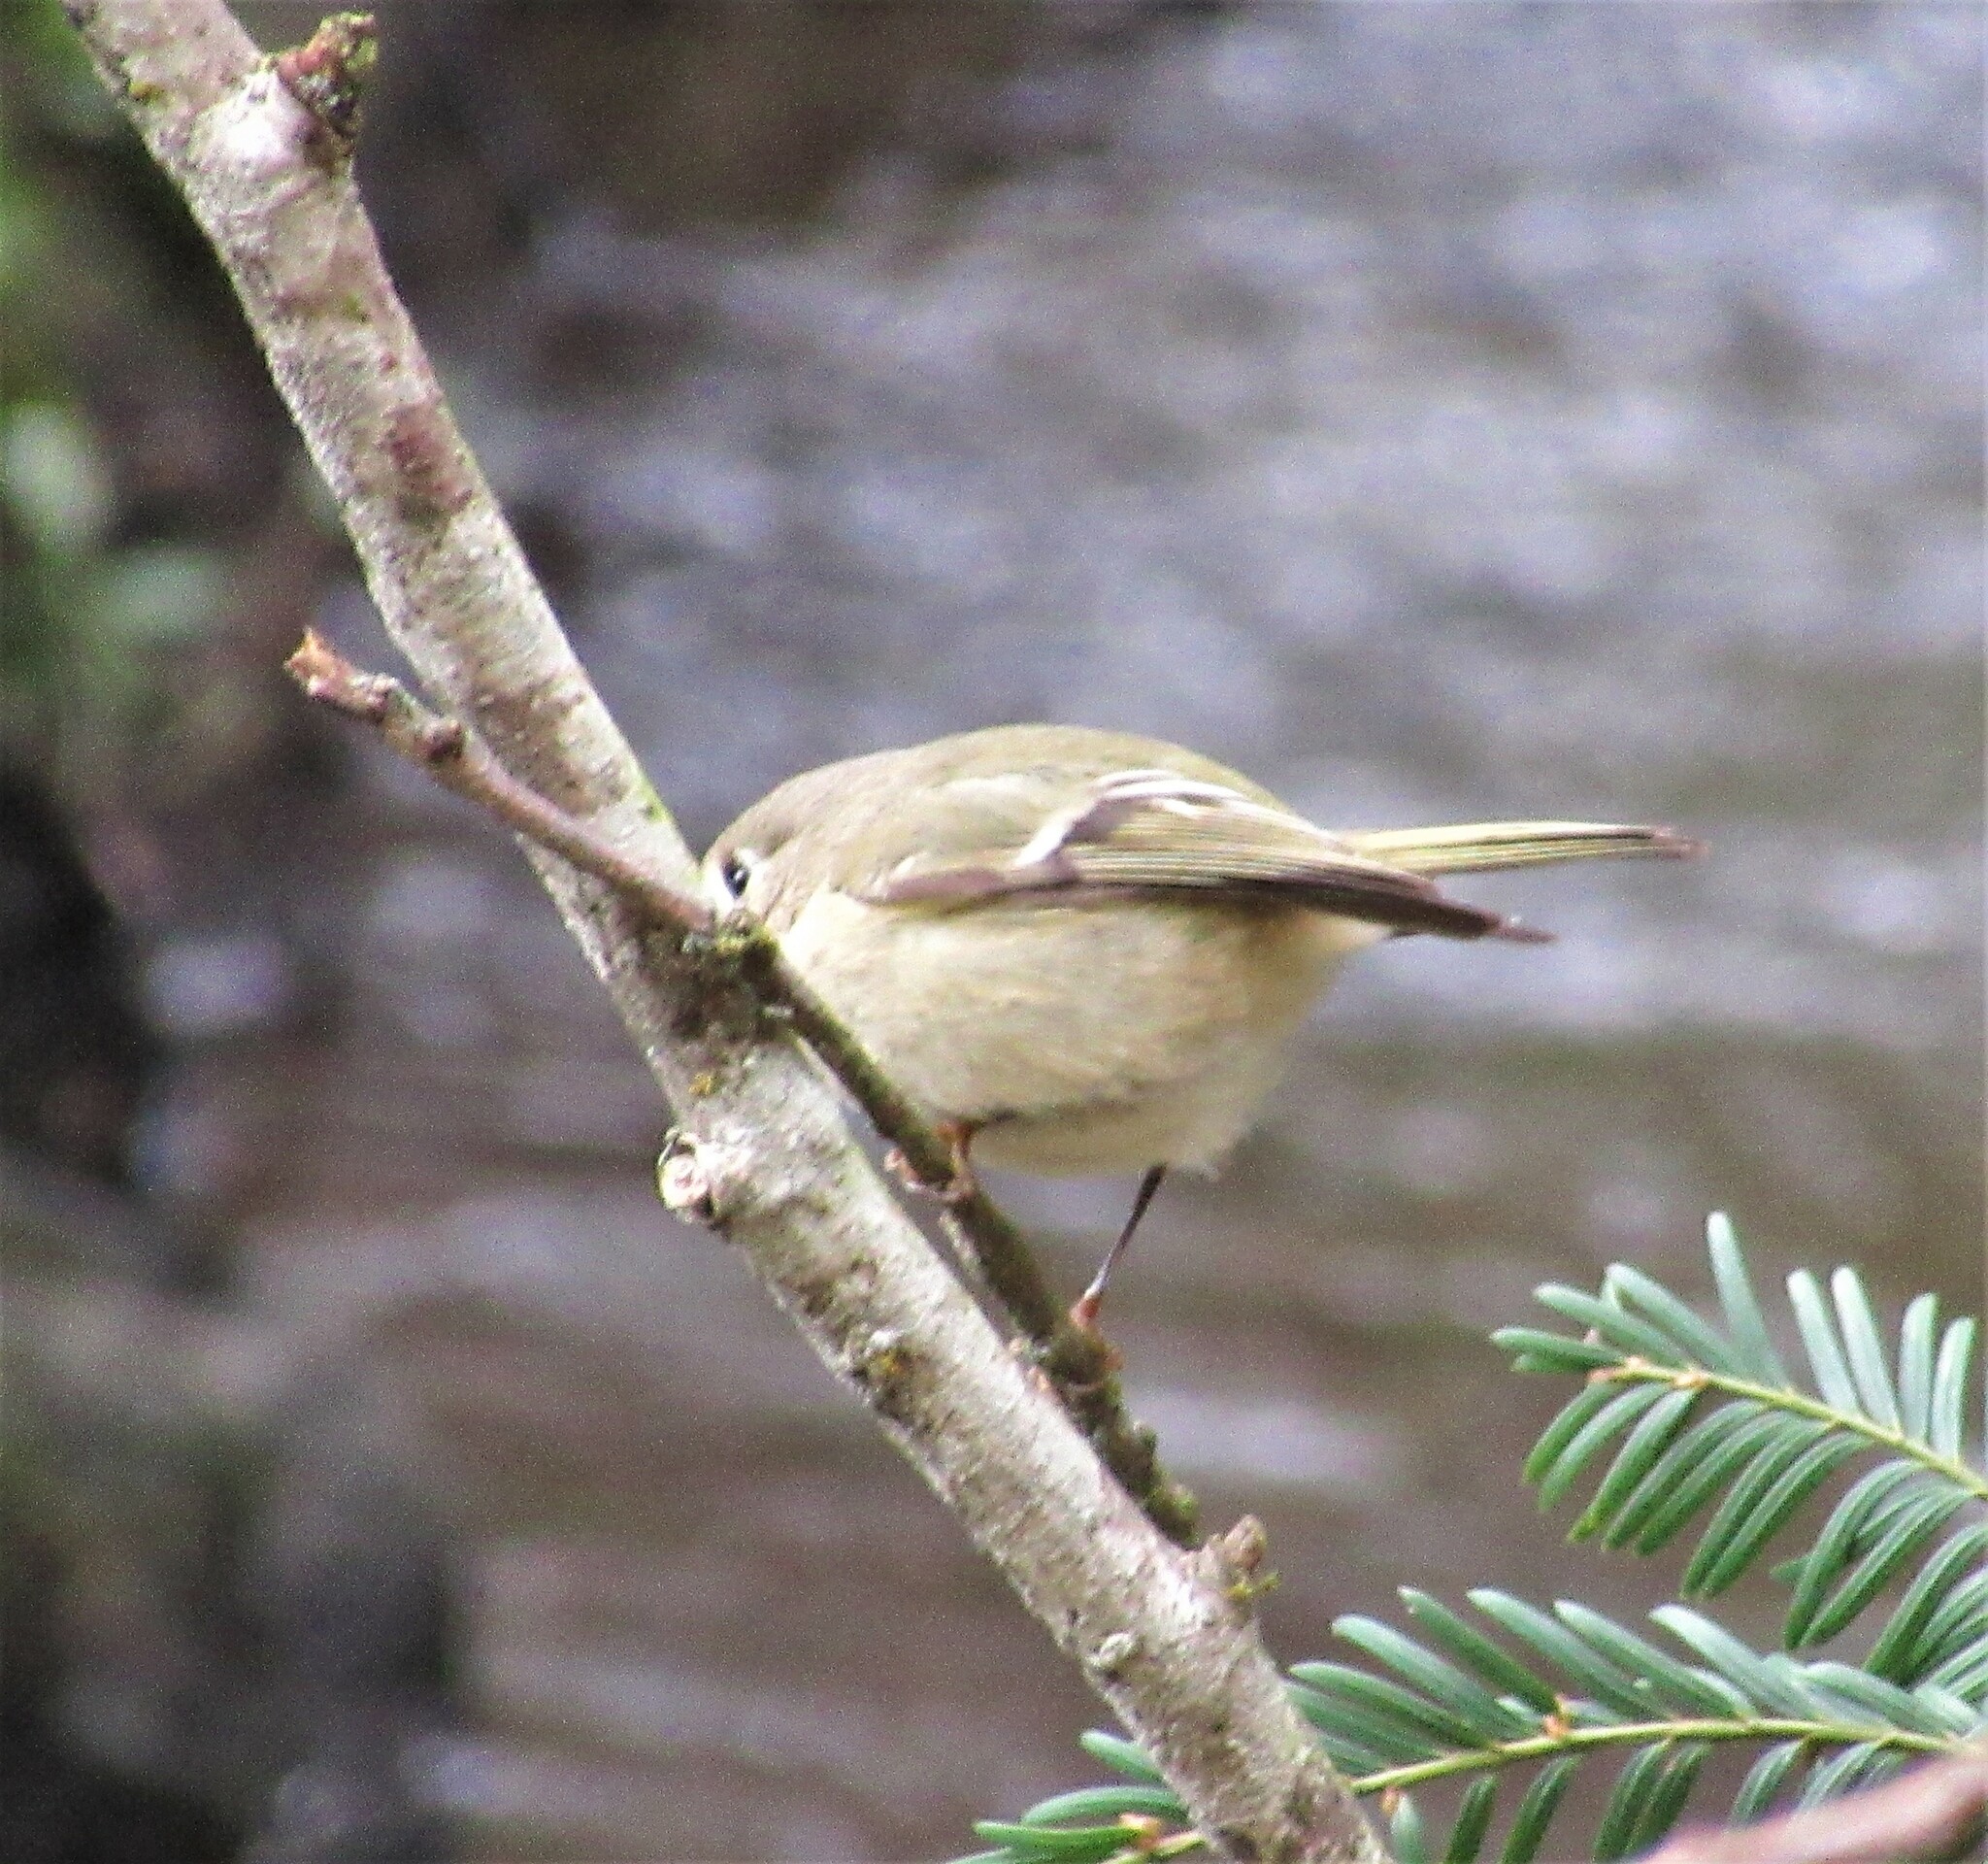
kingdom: Animalia
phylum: Chordata
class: Aves
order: Passeriformes
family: Regulidae
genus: Regulus
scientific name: Regulus calendula
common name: Ruby-crowned kinglet
